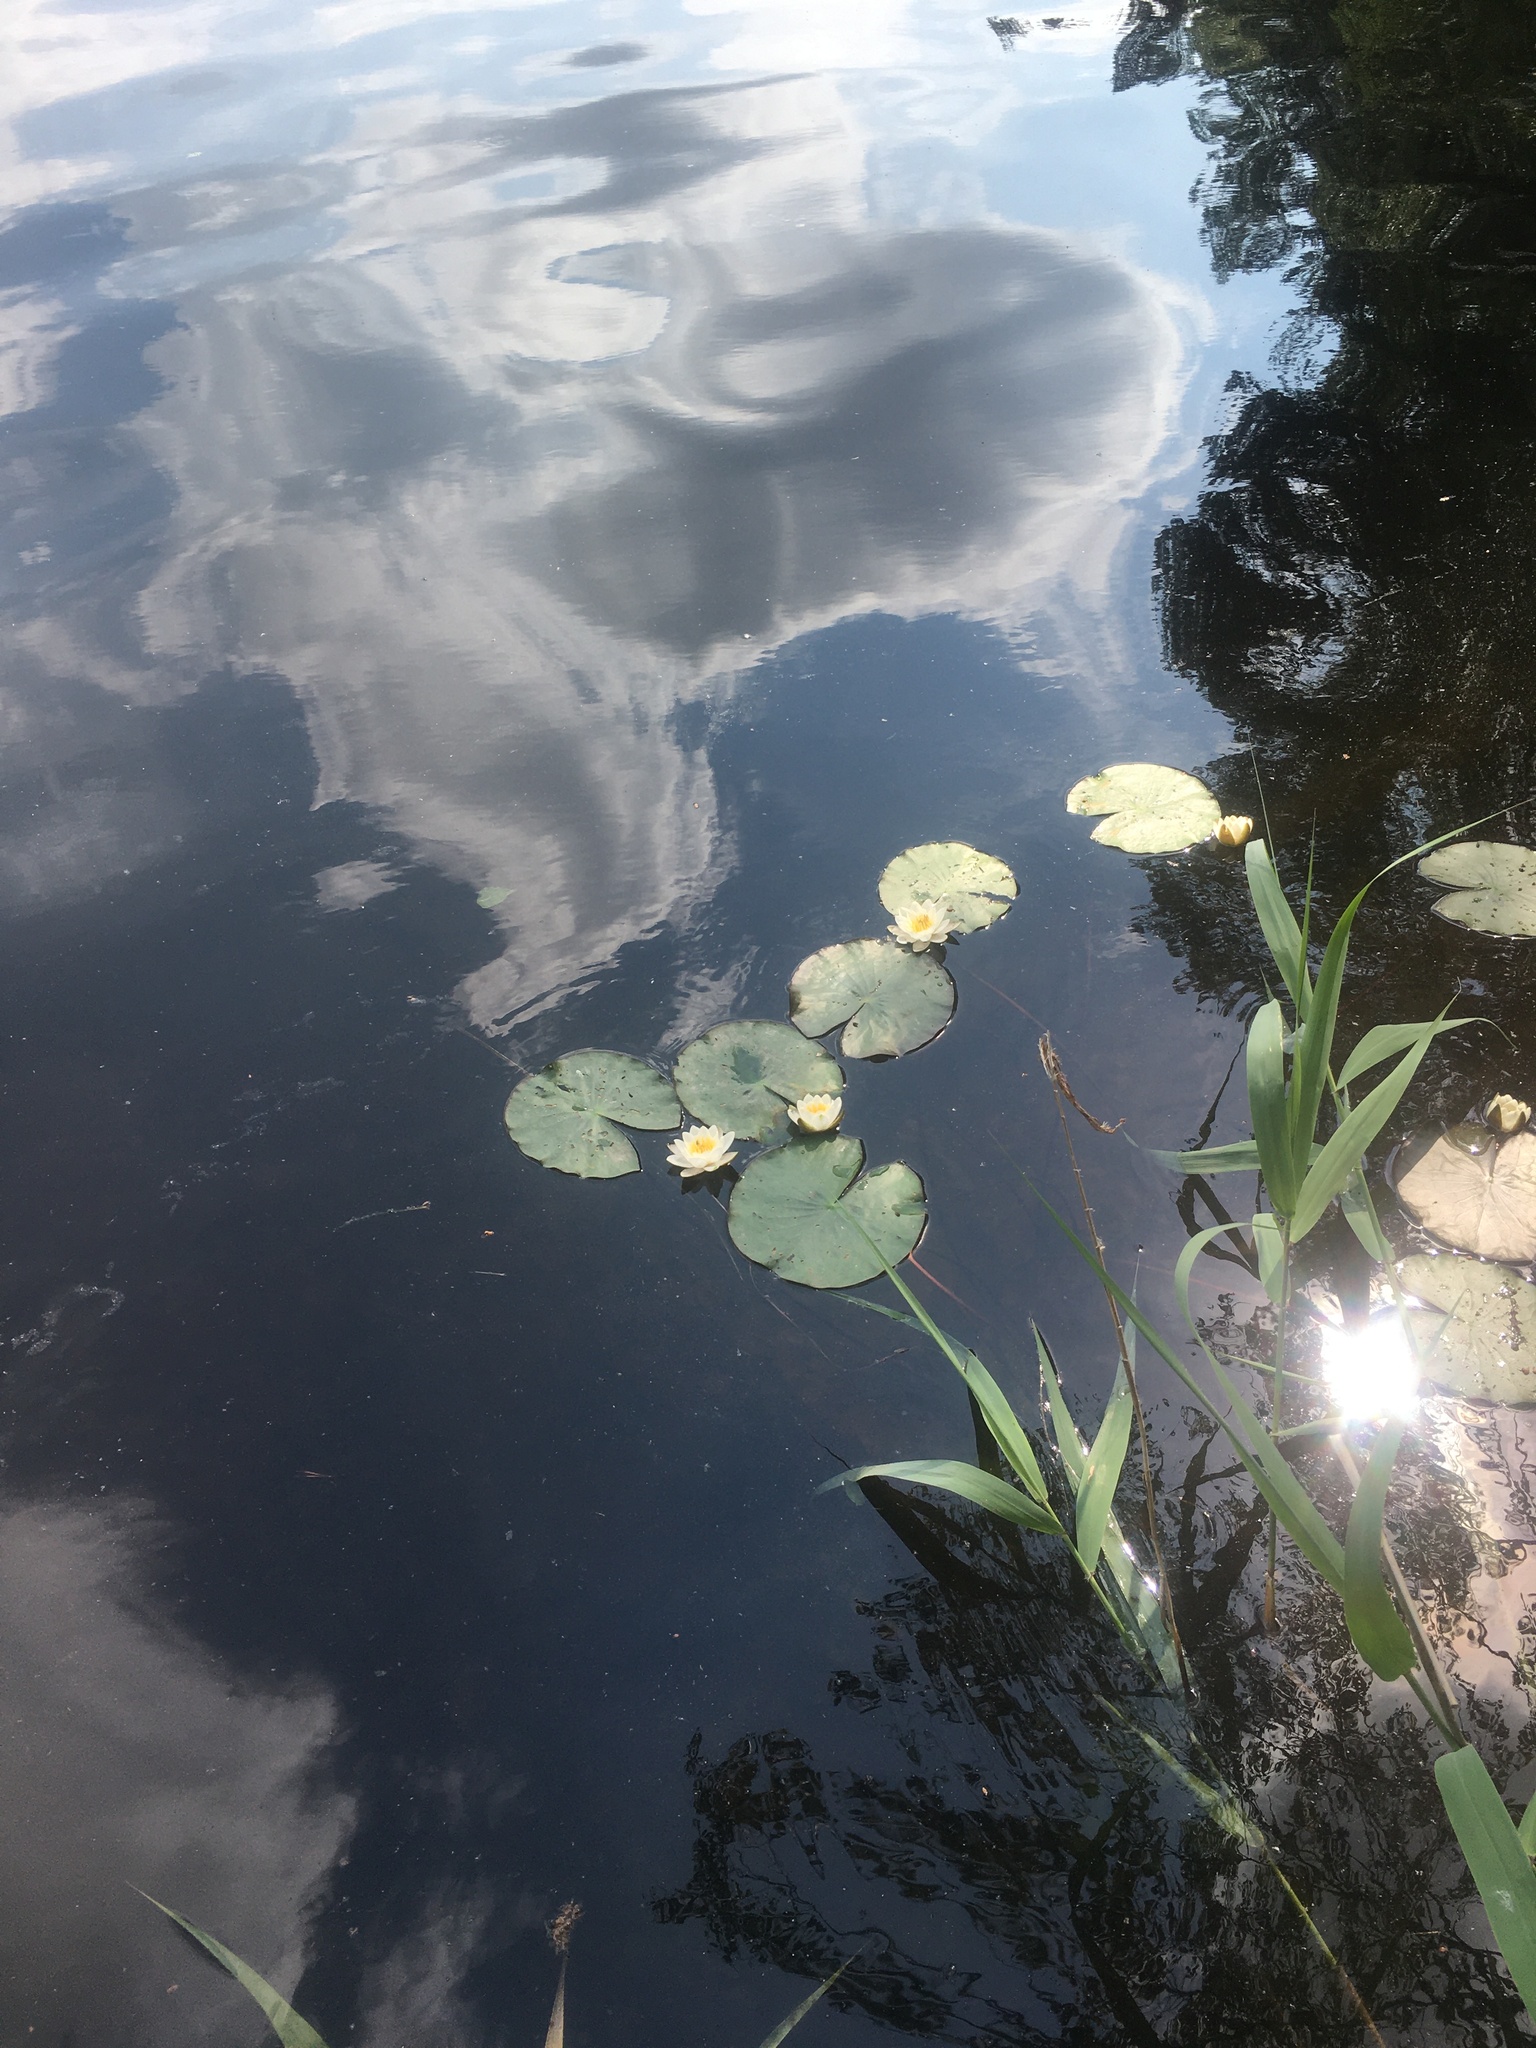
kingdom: Plantae
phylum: Tracheophyta
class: Magnoliopsida
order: Nymphaeales
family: Nymphaeaceae
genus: Nymphaea
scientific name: Nymphaea candida
